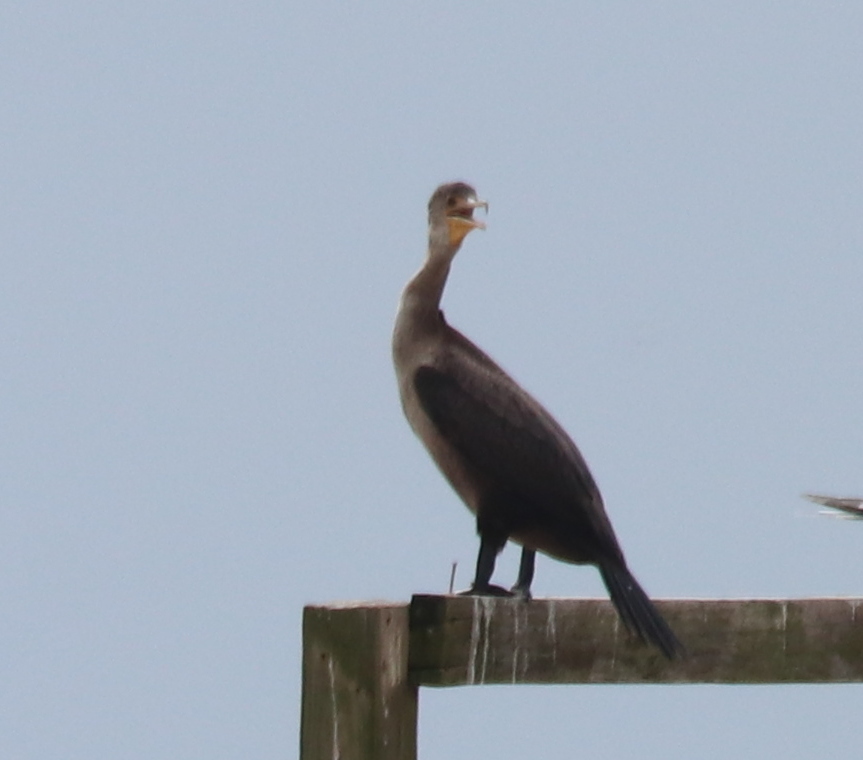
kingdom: Animalia
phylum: Chordata
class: Aves
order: Suliformes
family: Phalacrocoracidae
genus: Phalacrocorax
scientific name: Phalacrocorax auritus
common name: Double-crested cormorant
